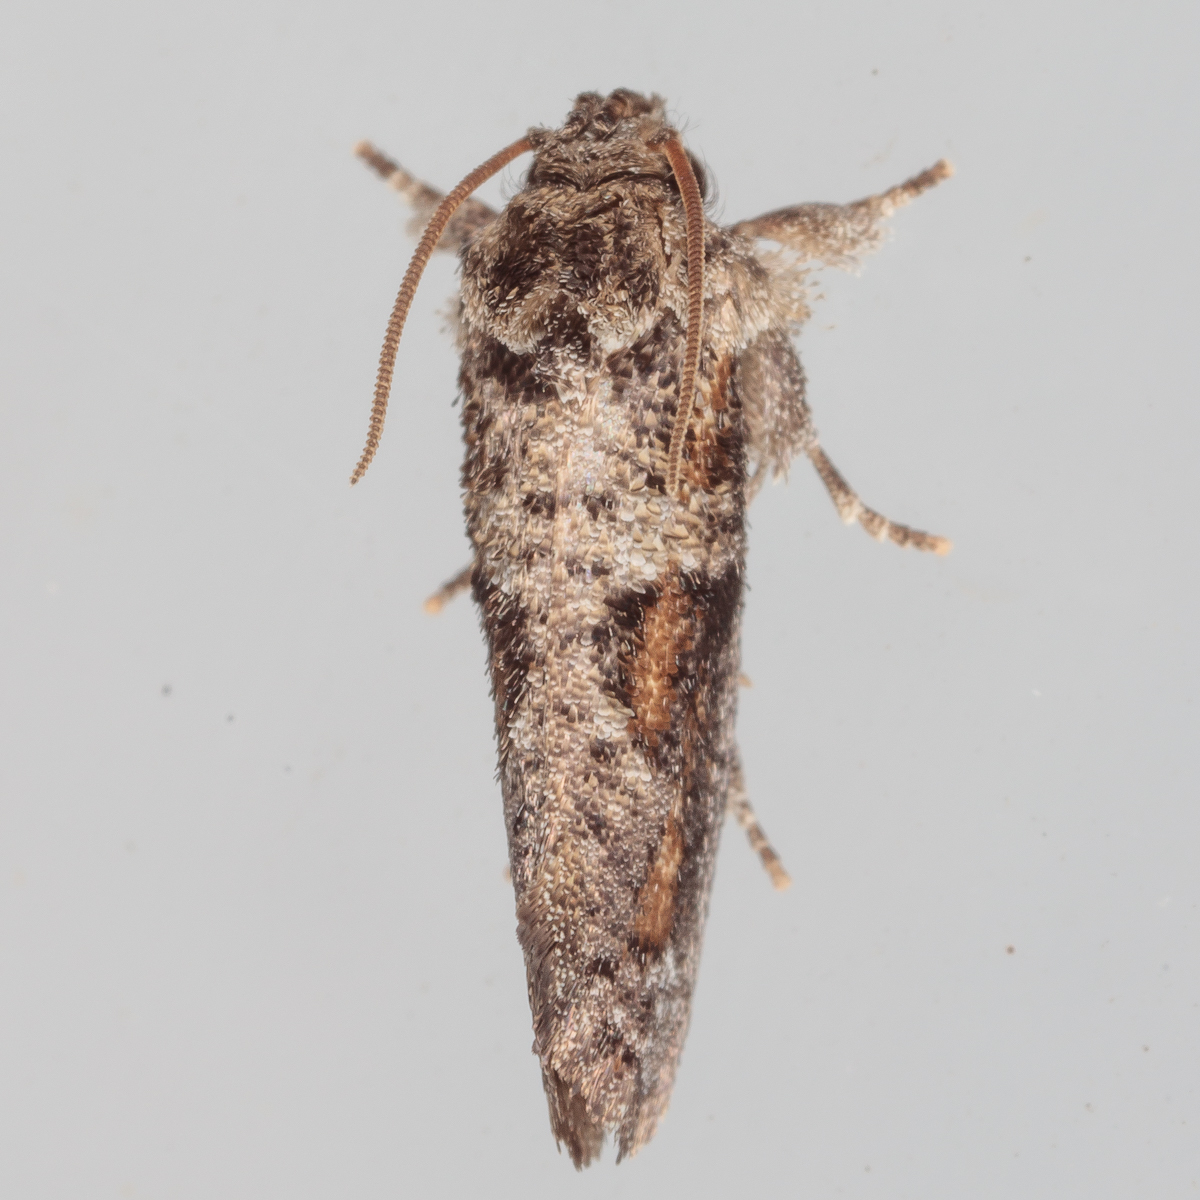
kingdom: Animalia
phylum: Arthropoda
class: Insecta
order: Lepidoptera
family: Tineidae
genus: Acrolophus
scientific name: Acrolophus piger
